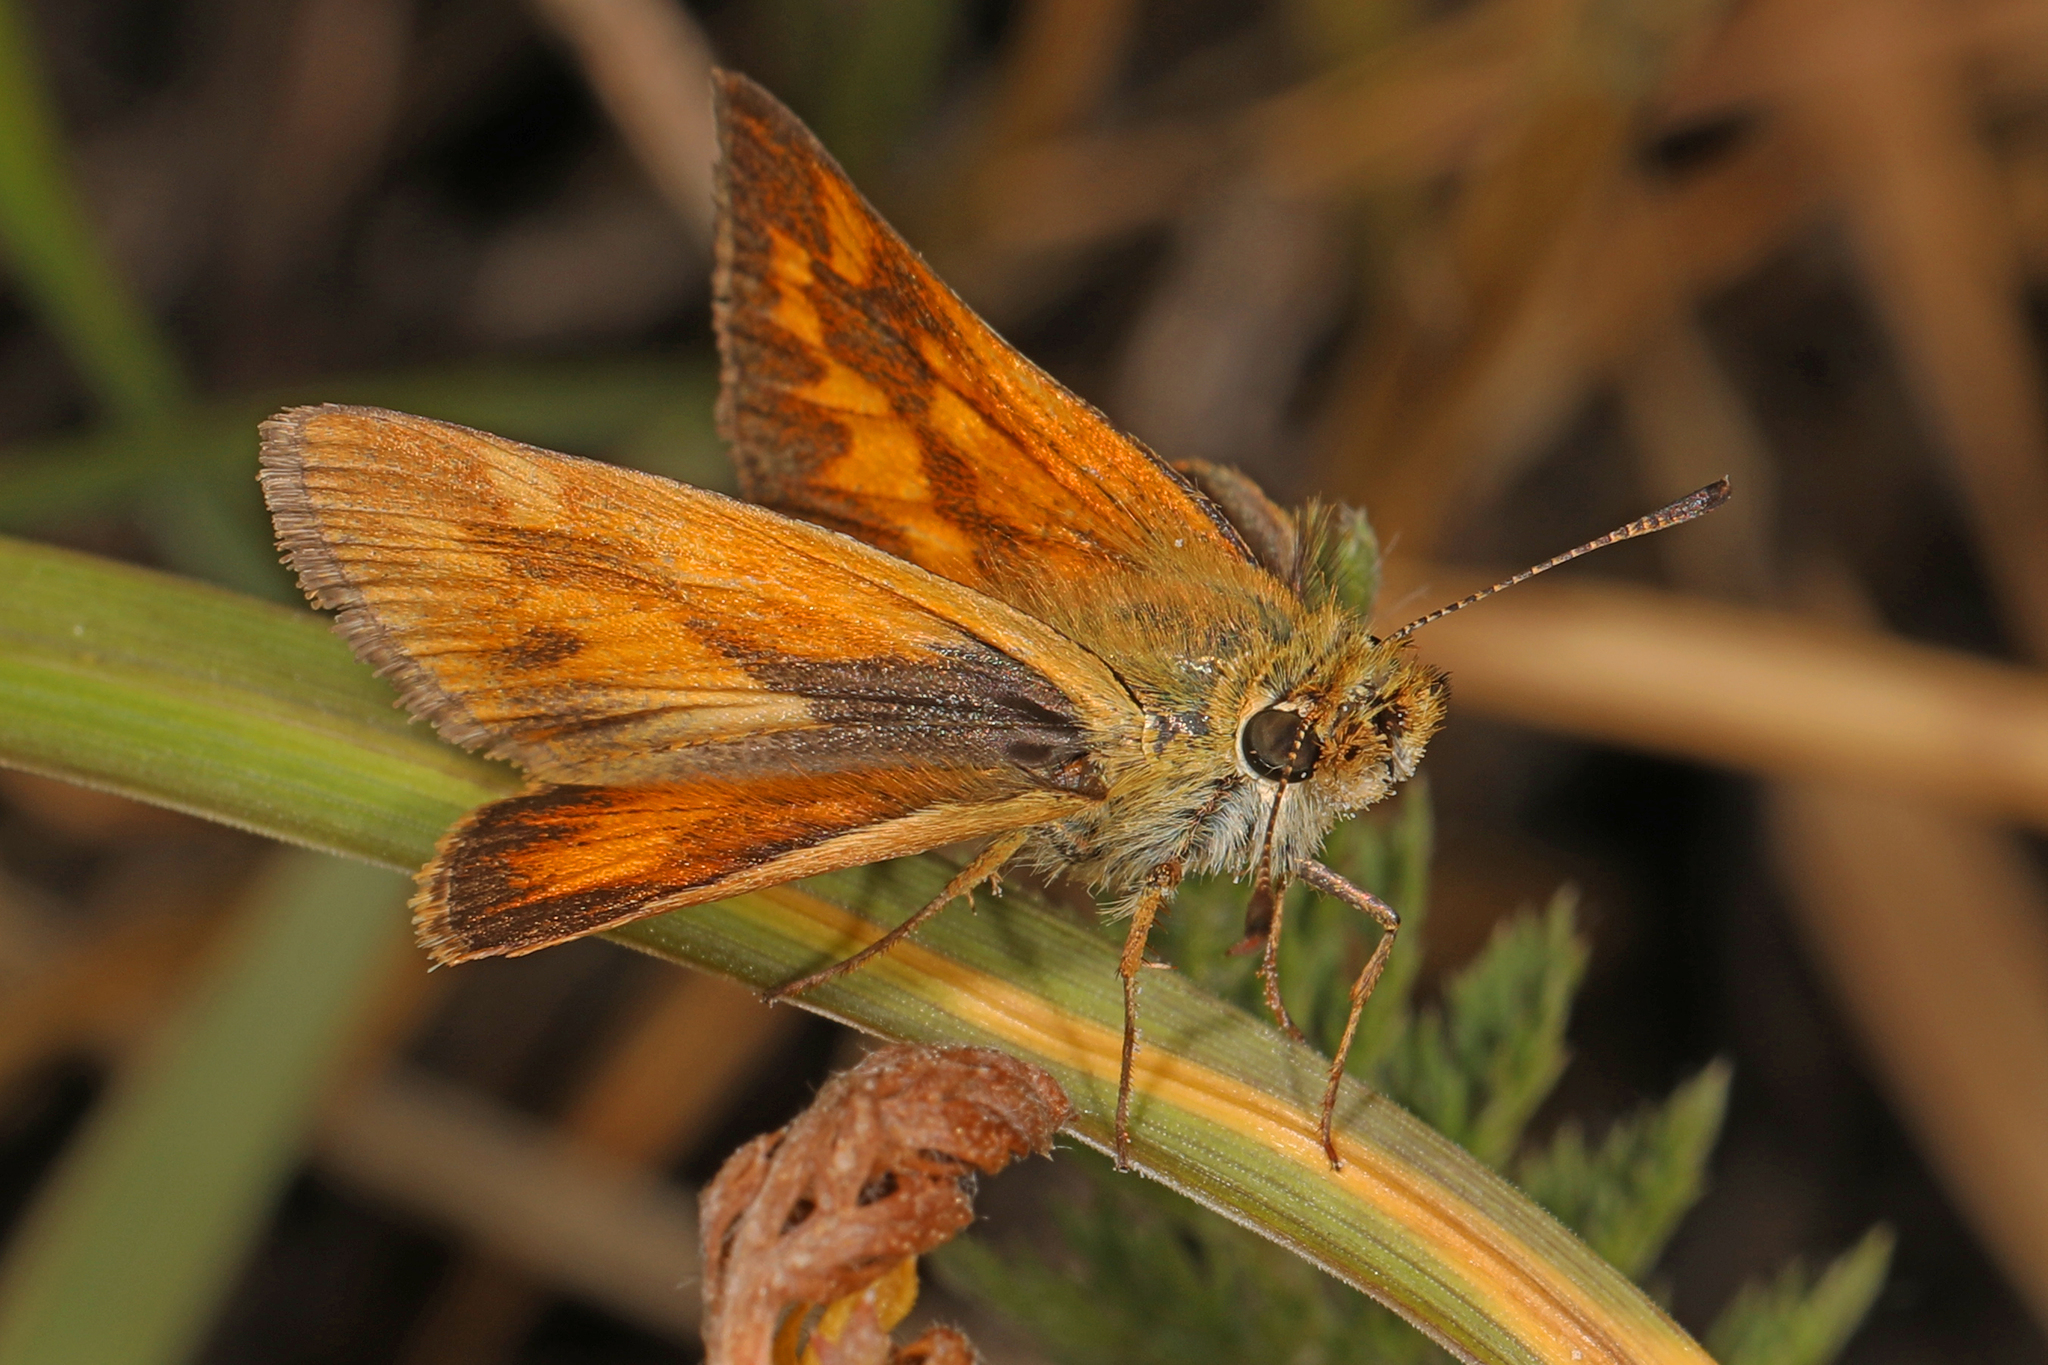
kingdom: Animalia
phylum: Arthropoda
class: Insecta
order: Lepidoptera
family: Hesperiidae
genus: Ochlodes
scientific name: Ochlodes sylvanoides
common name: Woodland skipper
